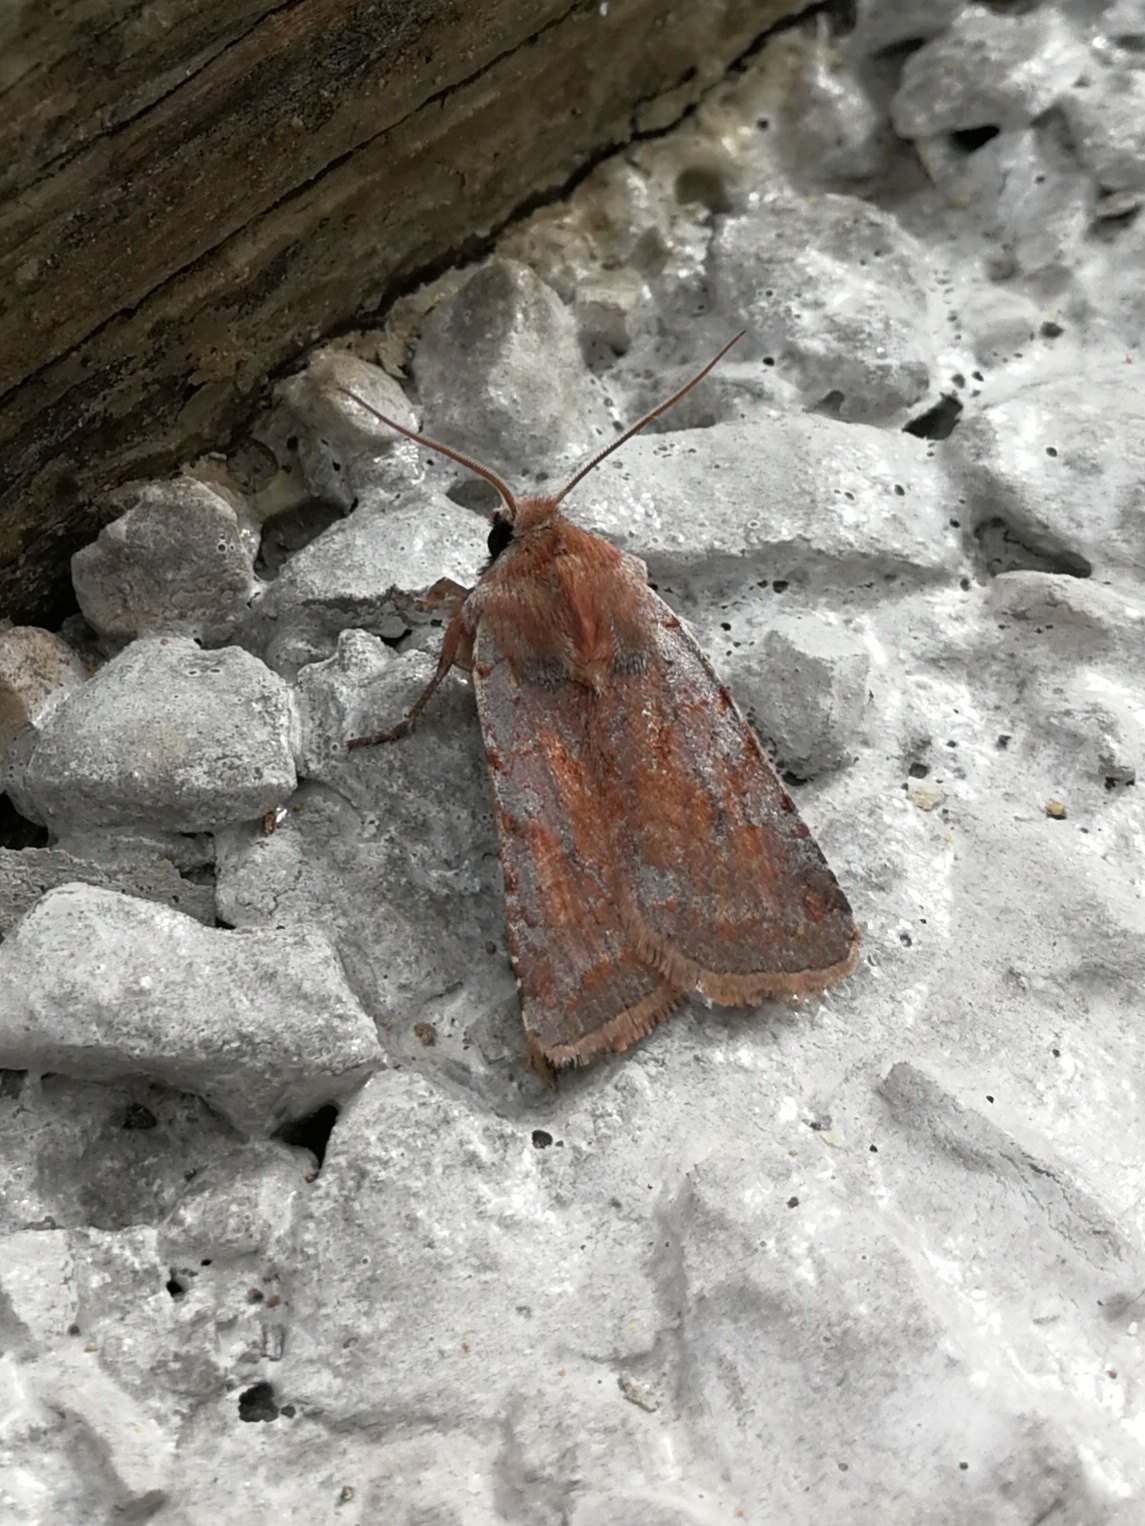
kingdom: Animalia
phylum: Arthropoda
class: Insecta
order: Lepidoptera
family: Noctuidae
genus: Cerastis
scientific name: Cerastis rubricosa
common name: Red chestnut
